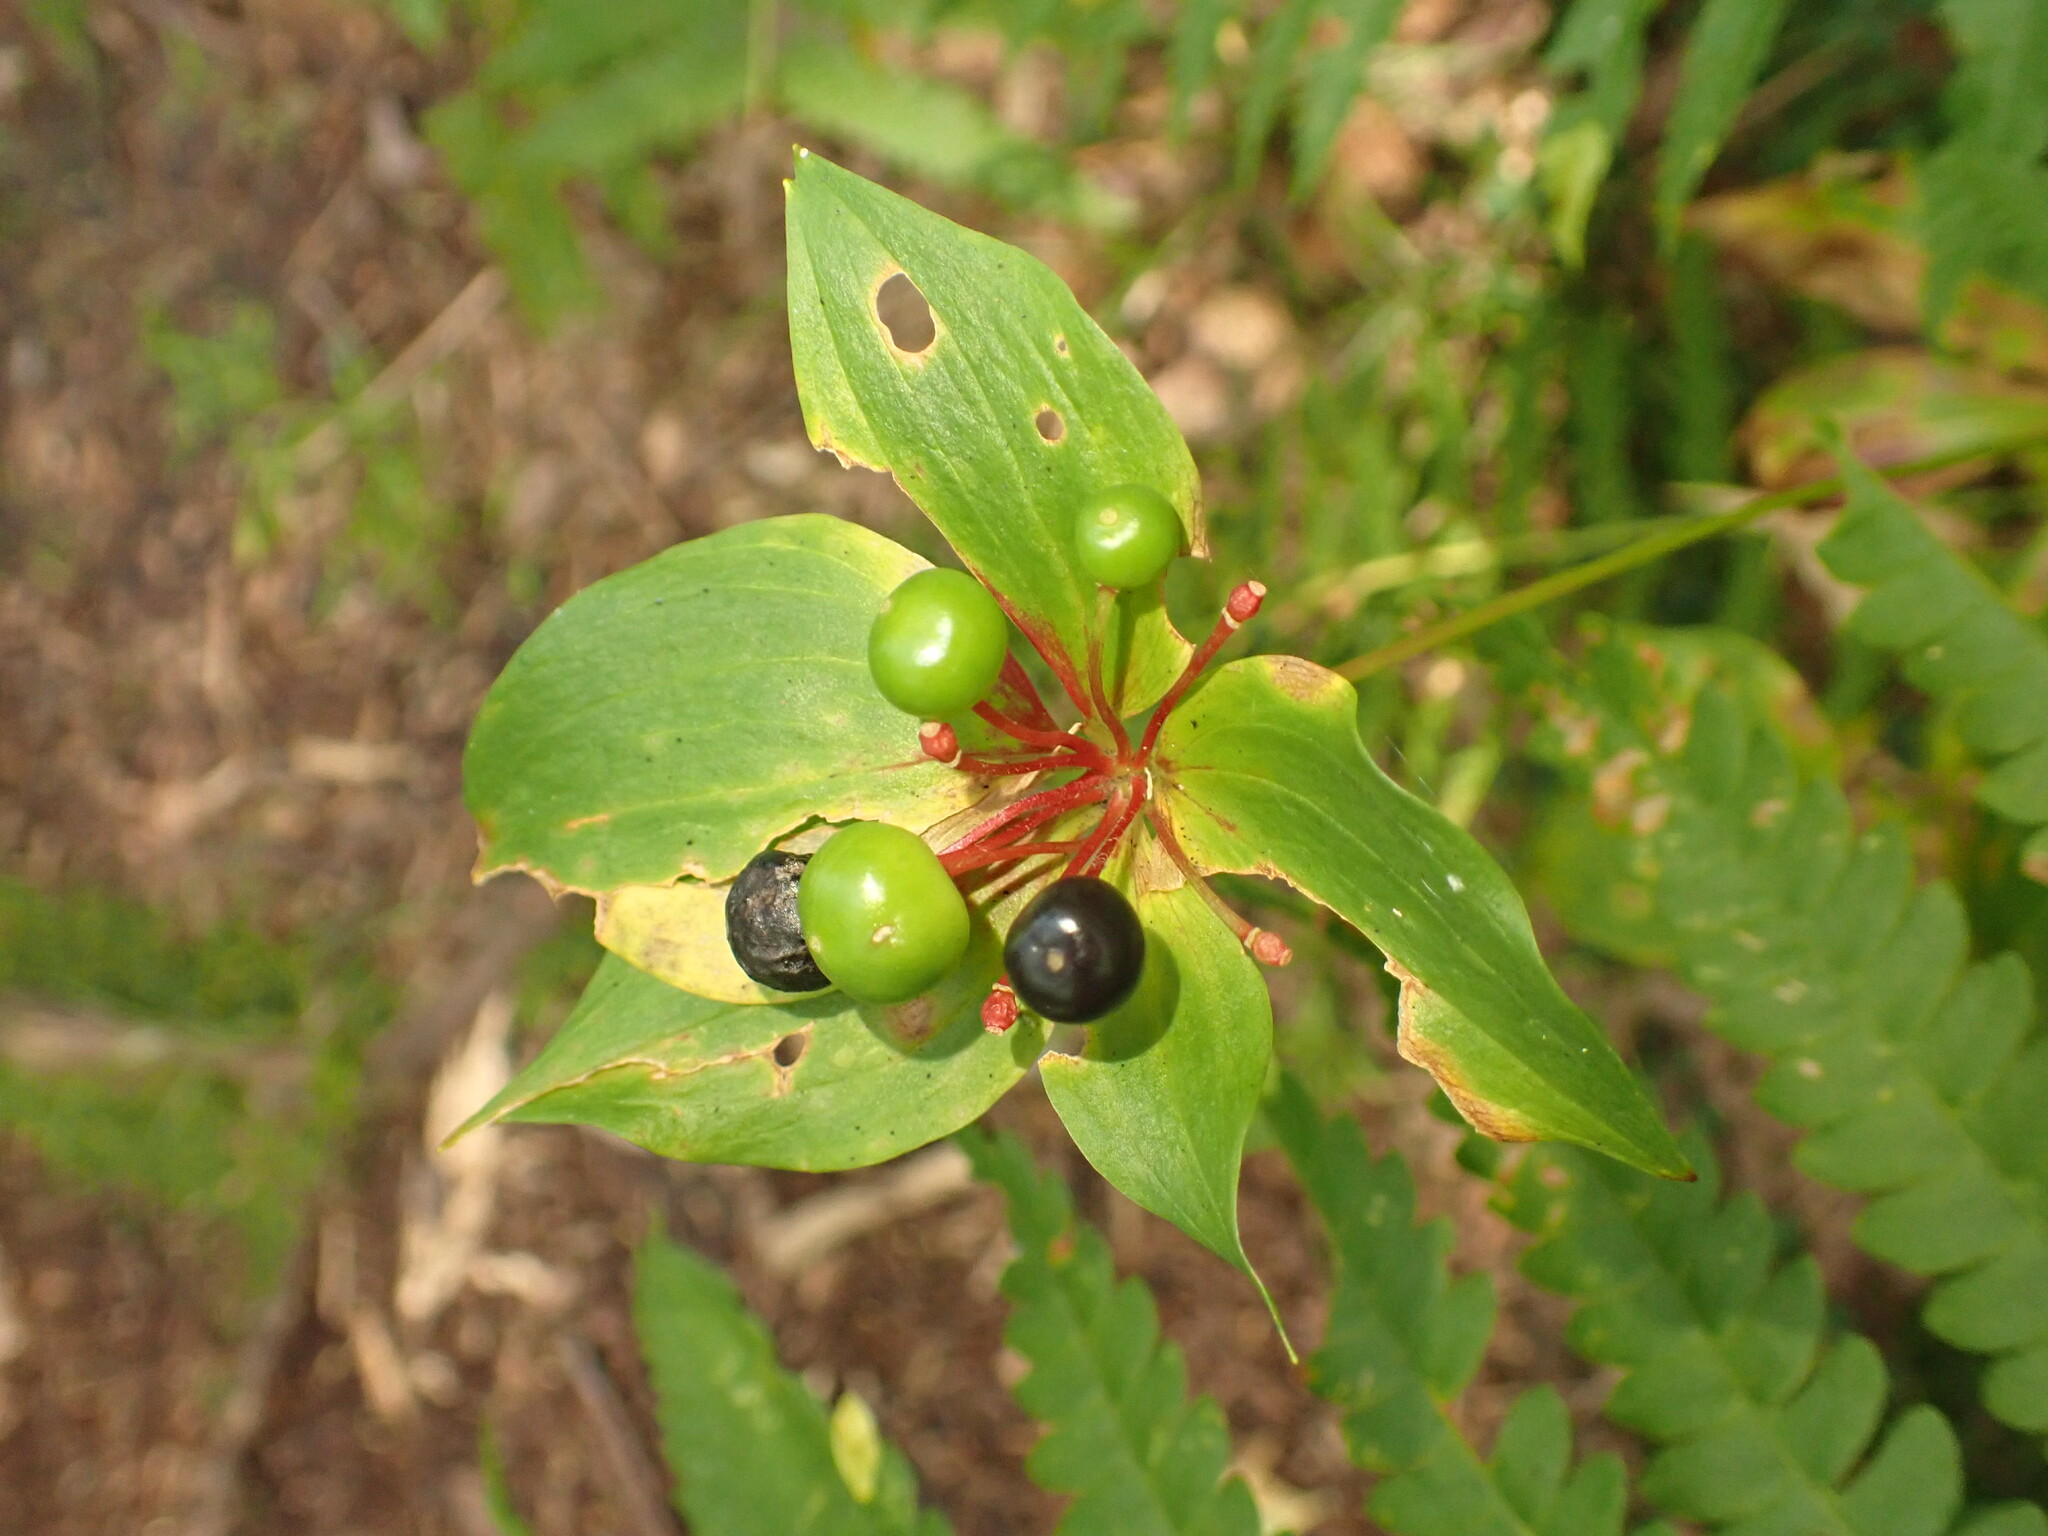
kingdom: Plantae
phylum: Tracheophyta
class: Liliopsida
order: Liliales
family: Liliaceae
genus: Medeola
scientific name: Medeola virginiana
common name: Indian cucumber-root
